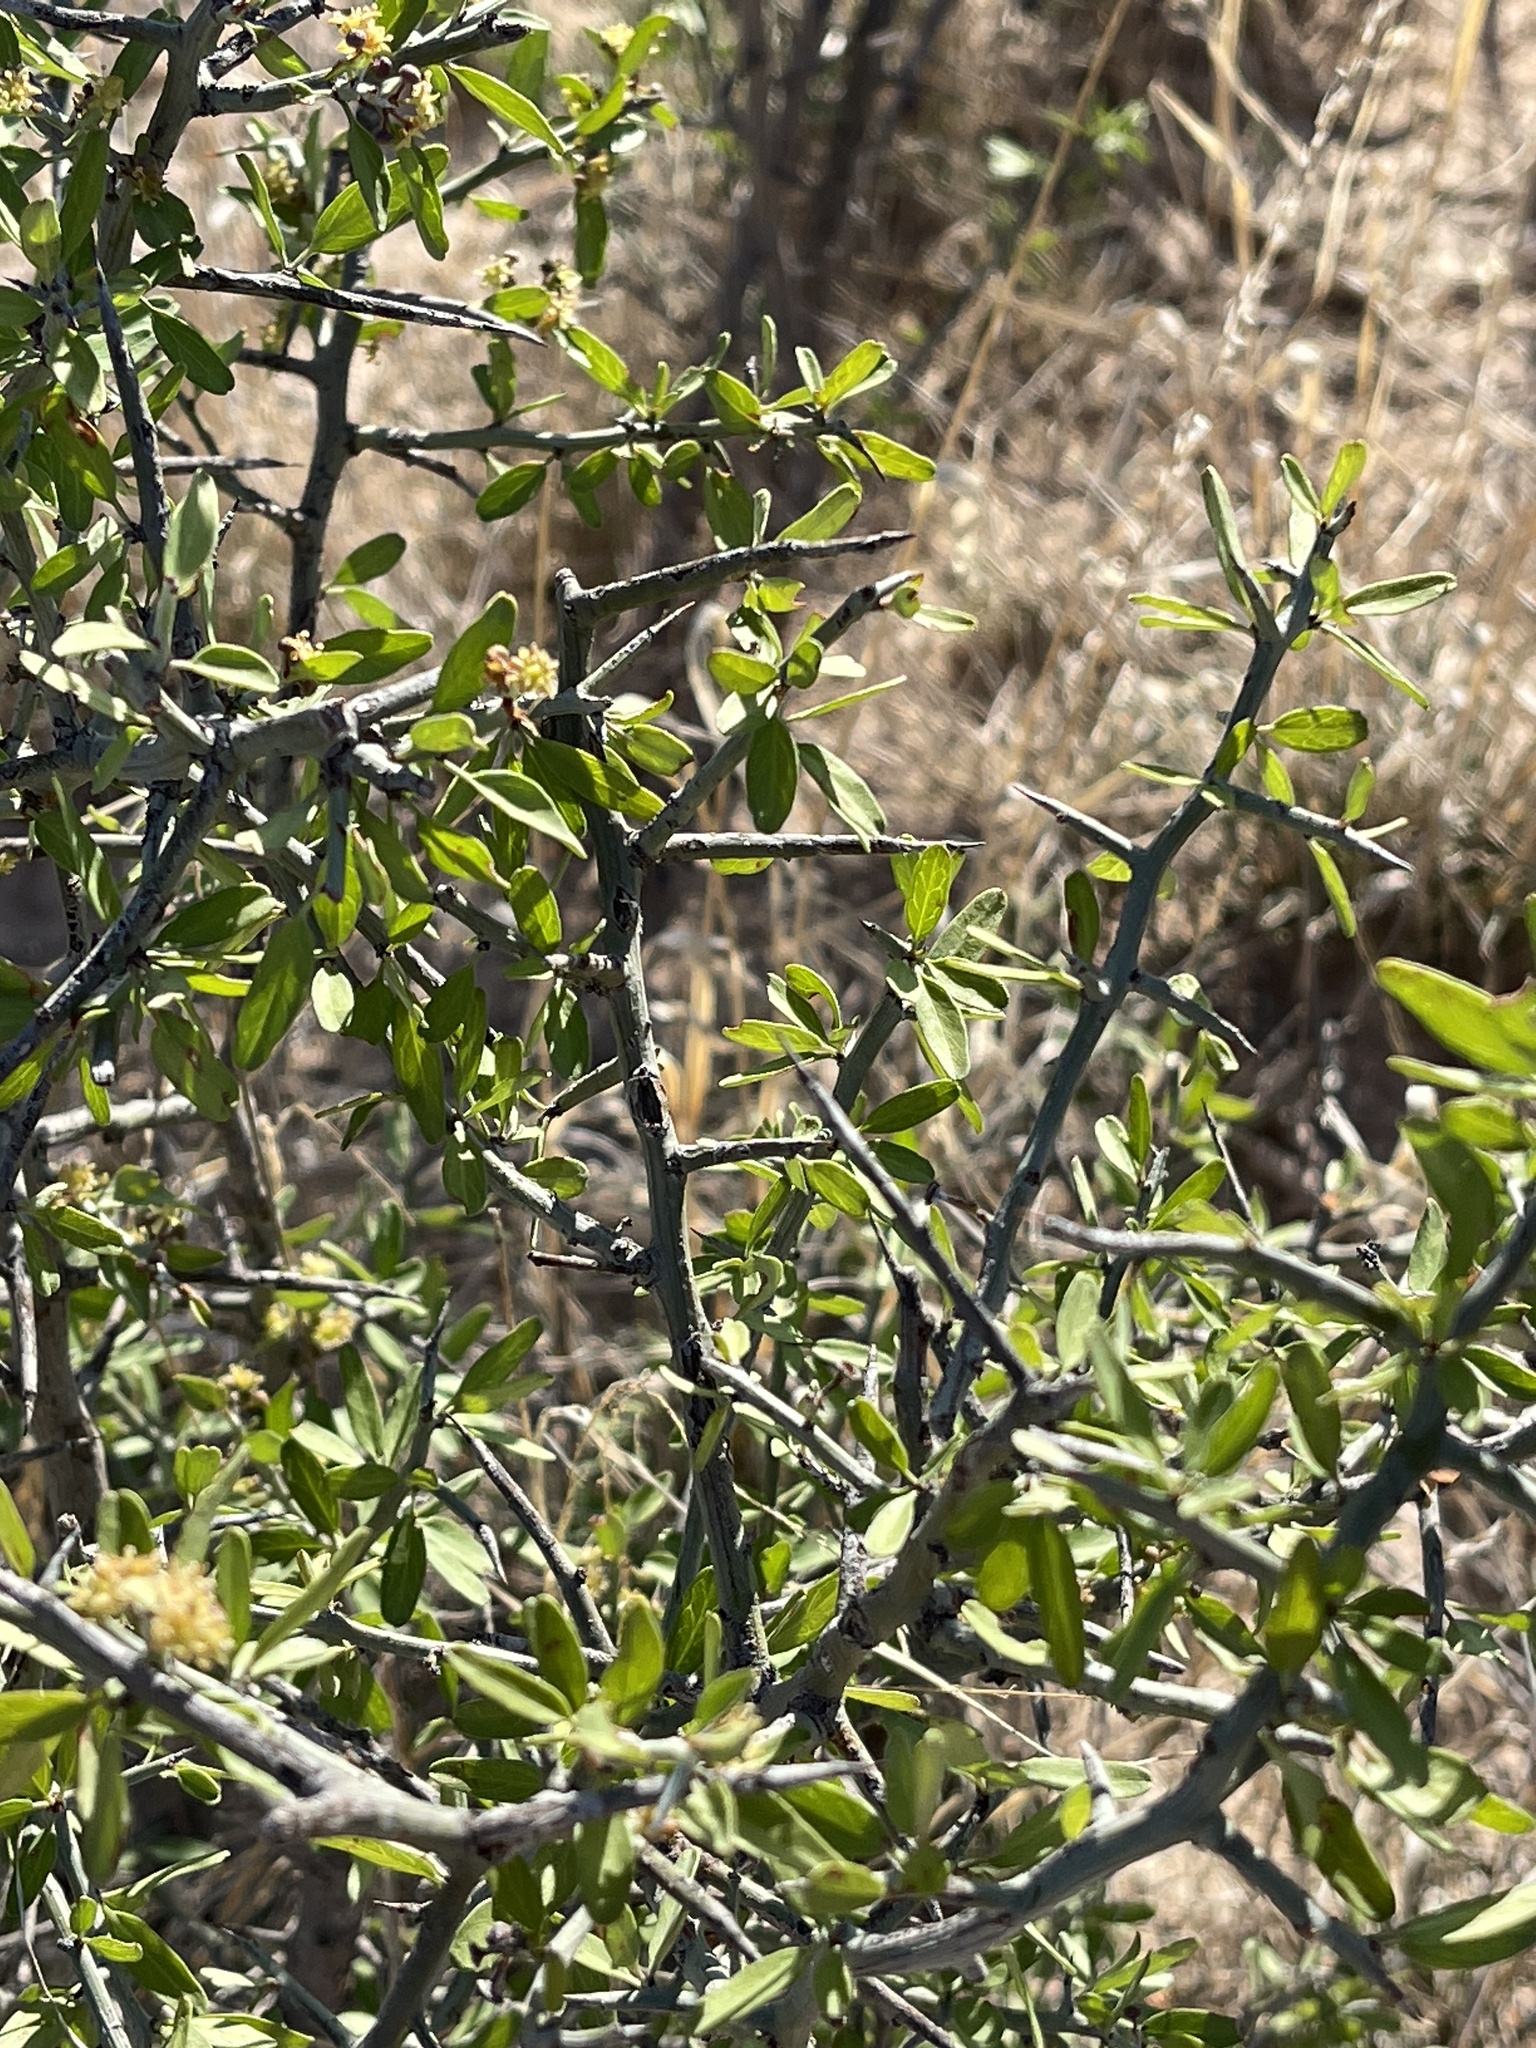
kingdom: Plantae
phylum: Tracheophyta
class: Magnoliopsida
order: Rosales
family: Rhamnaceae
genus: Sarcomphalus
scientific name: Sarcomphalus obtusifolius
